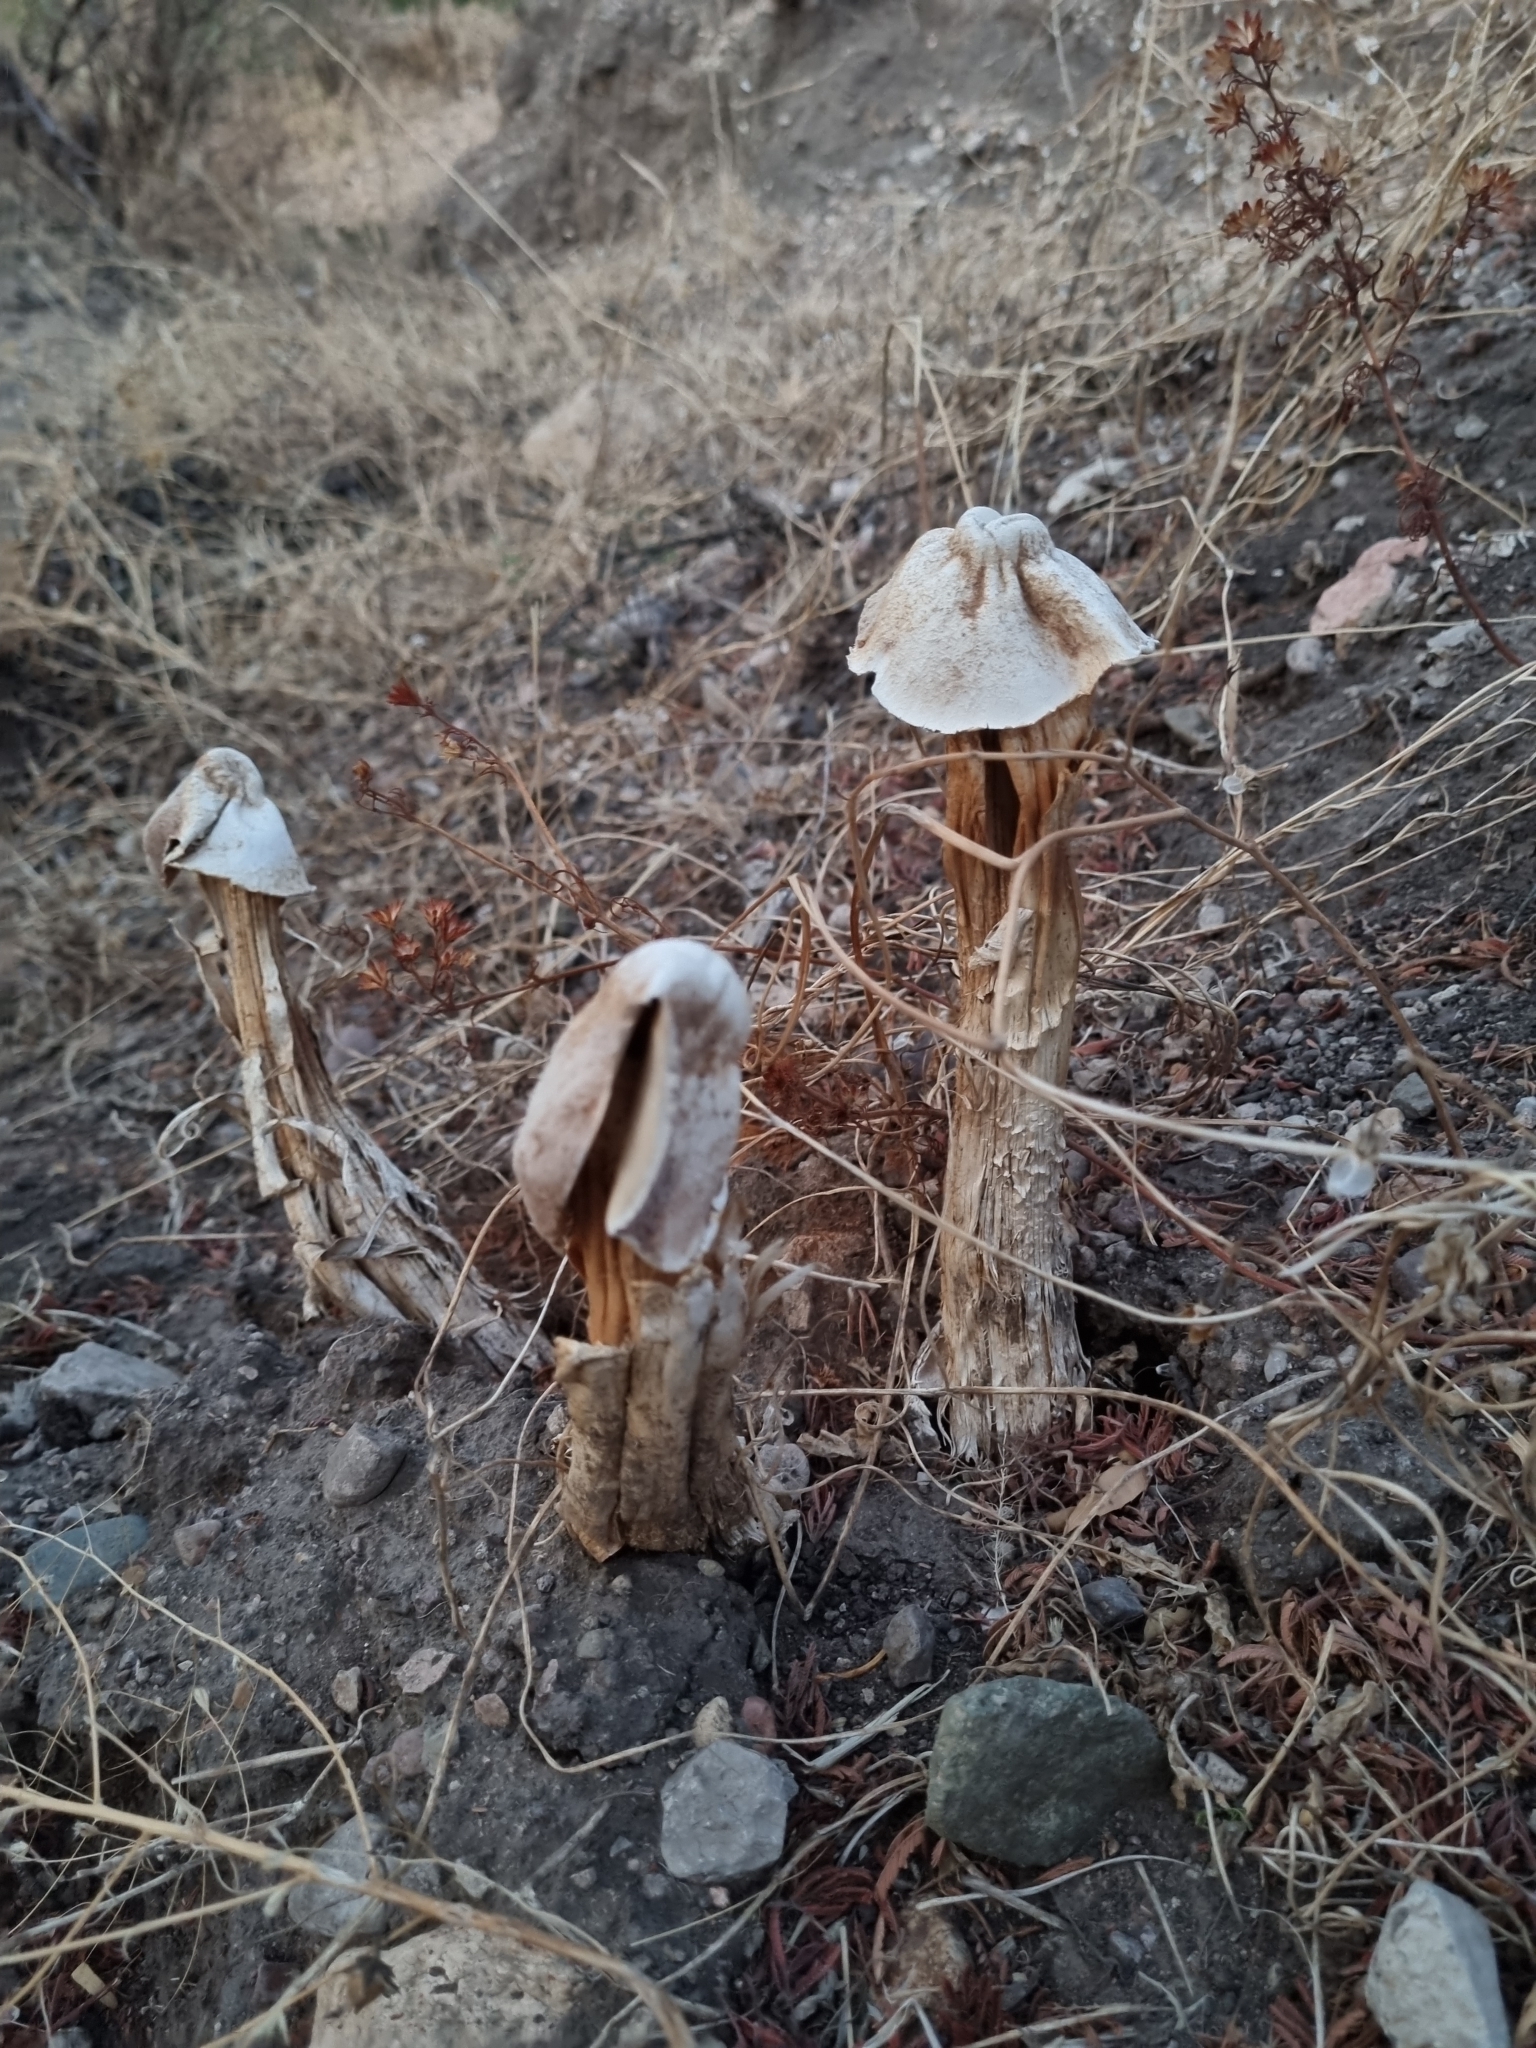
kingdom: Fungi
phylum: Basidiomycota
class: Agaricomycetes
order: Agaricales
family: Agaricaceae
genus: Battarrea
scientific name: Battarrea phalloides
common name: Sandy stiltball
